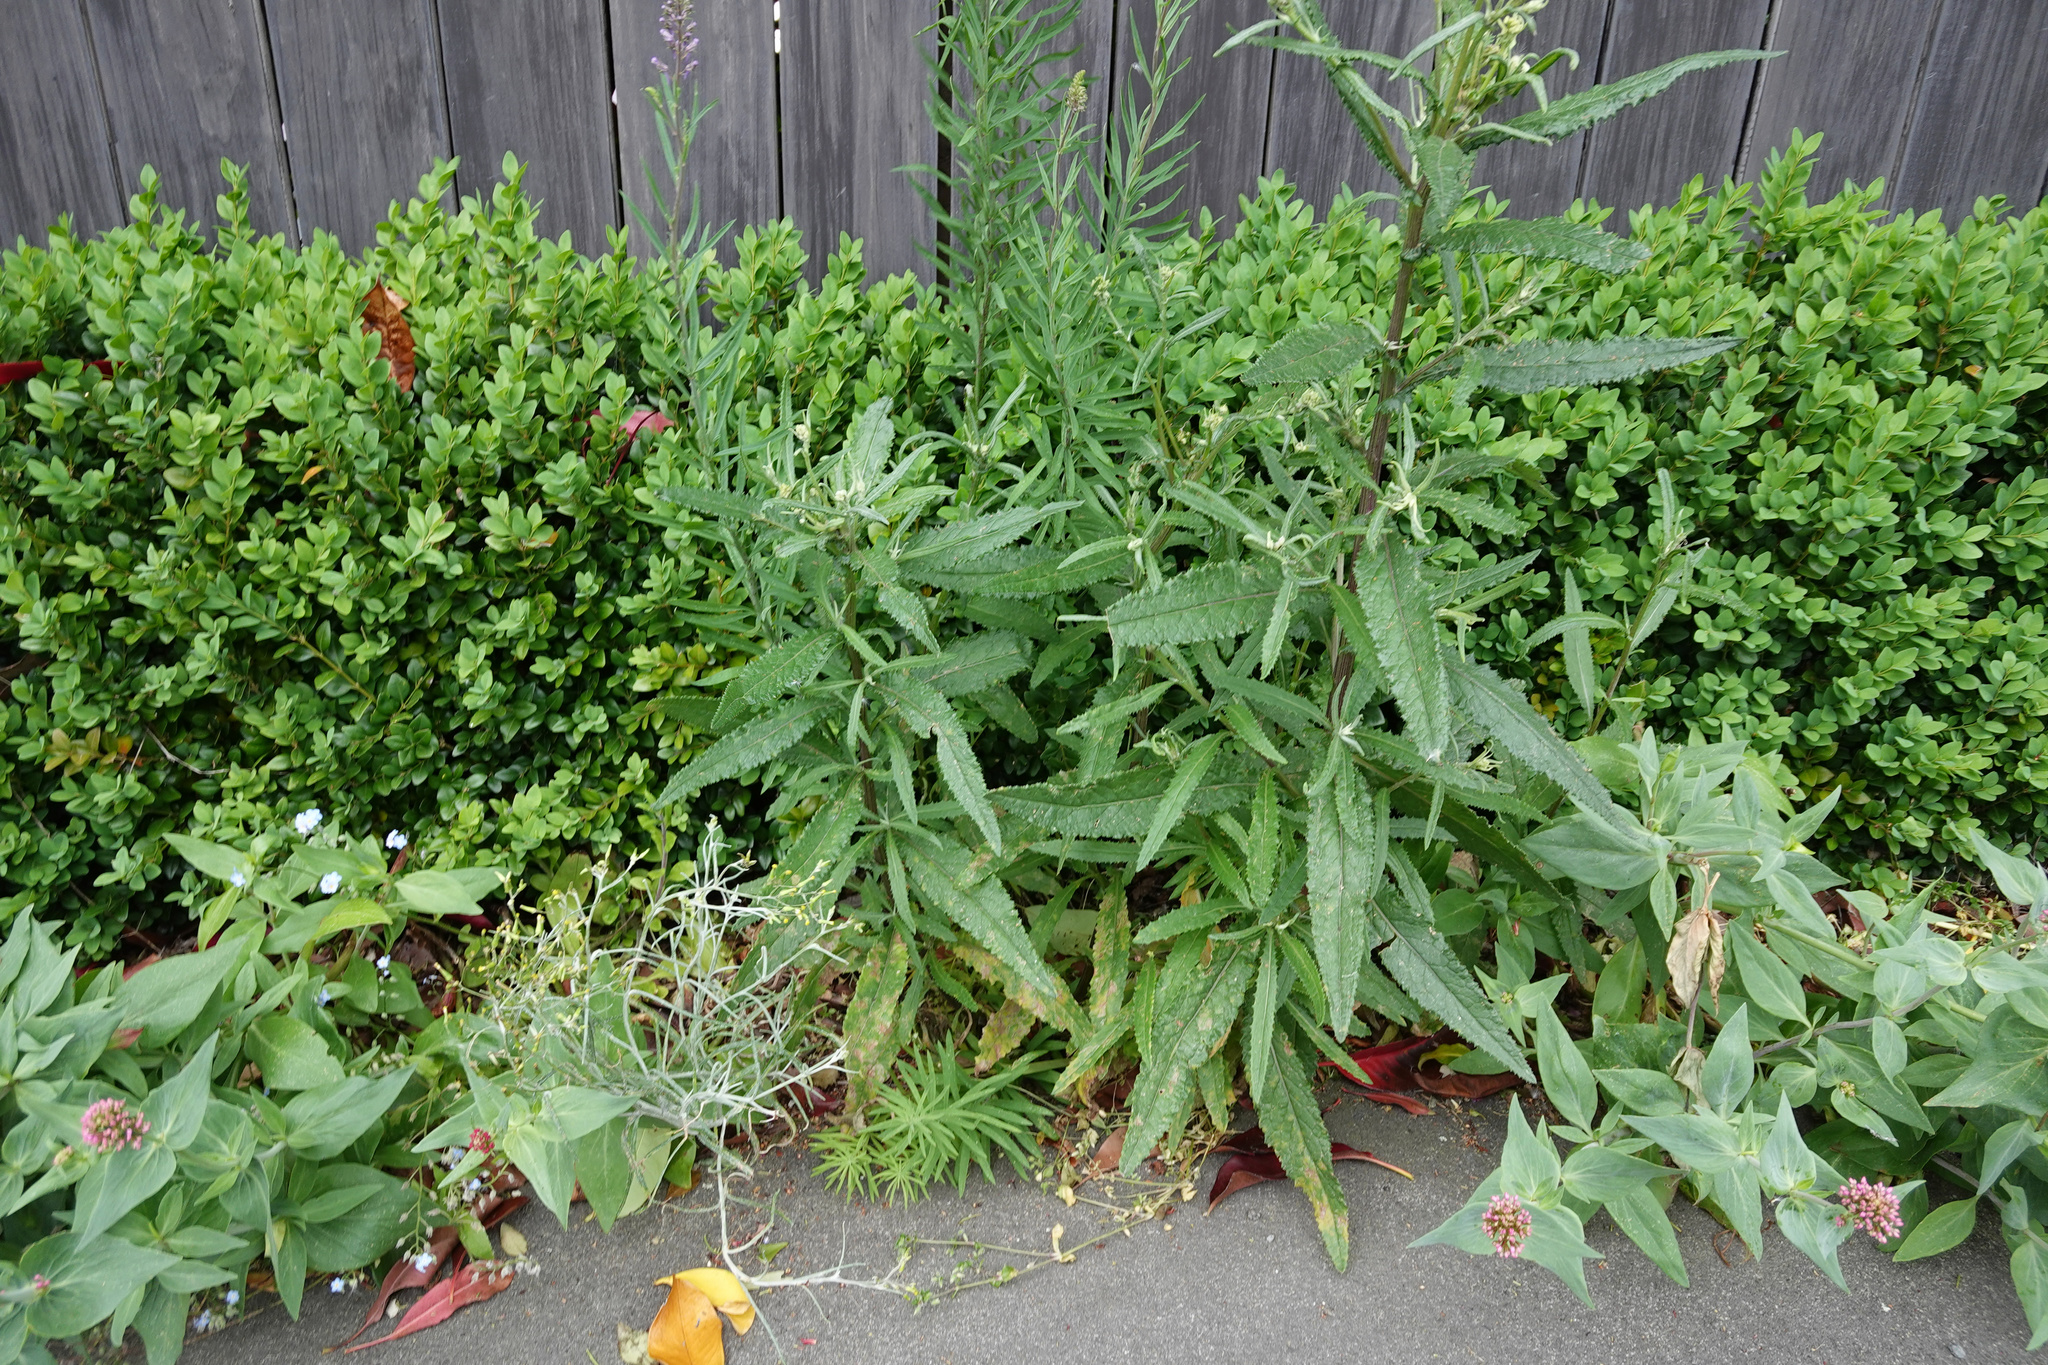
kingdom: Plantae
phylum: Tracheophyta
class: Magnoliopsida
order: Asterales
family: Asteraceae
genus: Senecio
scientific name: Senecio minimus
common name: Toothed fireweed
